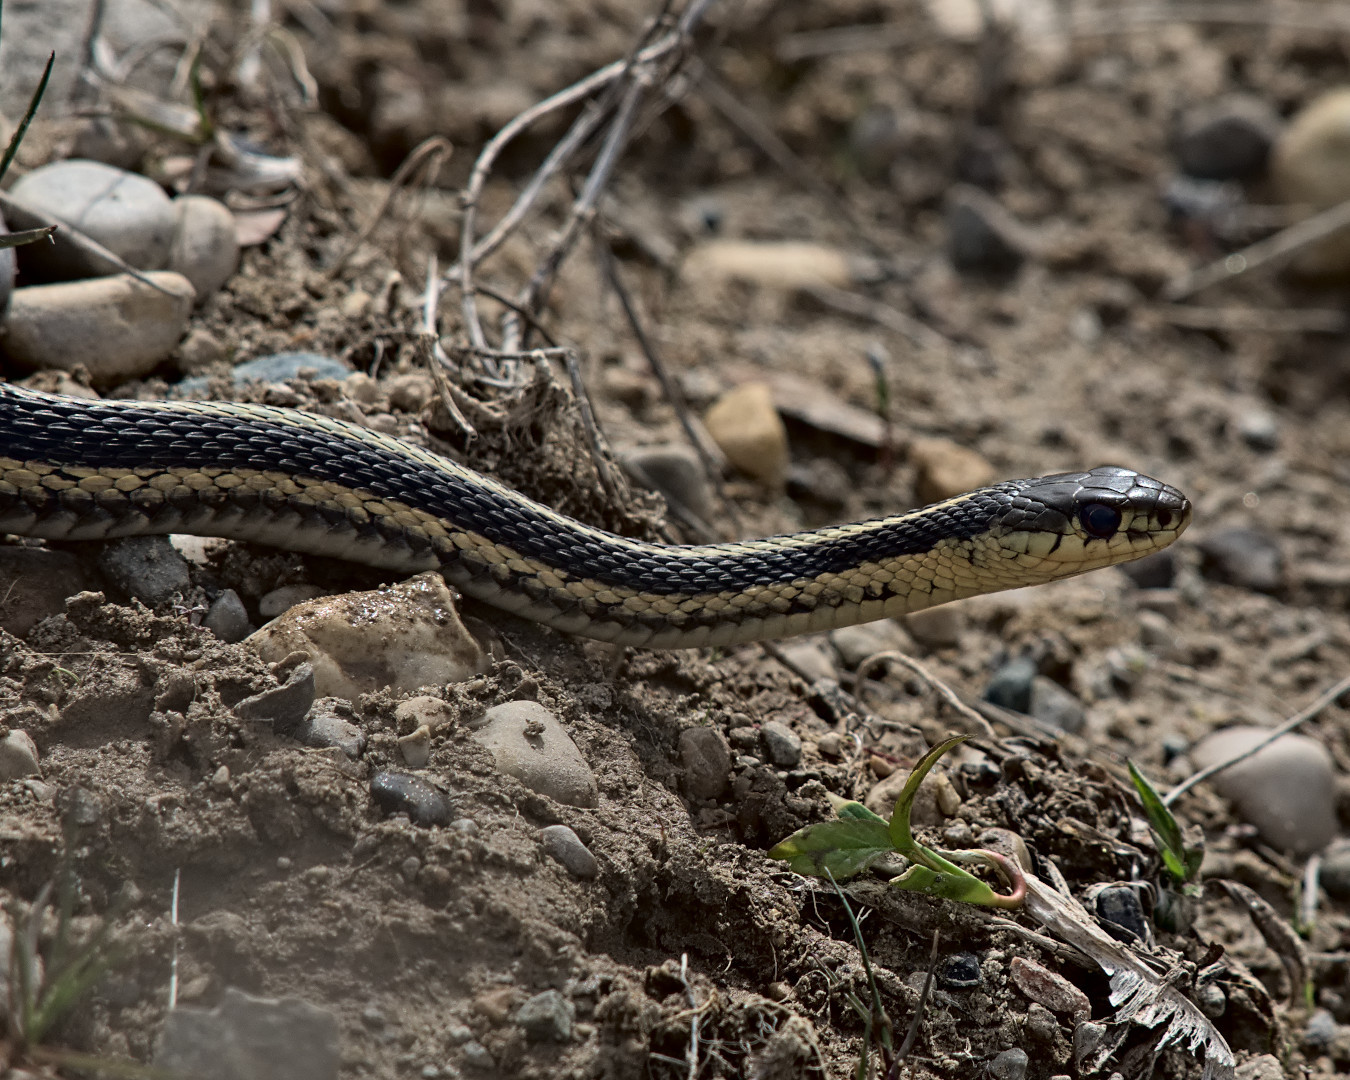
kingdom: Animalia
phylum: Chordata
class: Squamata
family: Colubridae
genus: Thamnophis
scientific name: Thamnophis sirtalis
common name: Common garter snake
